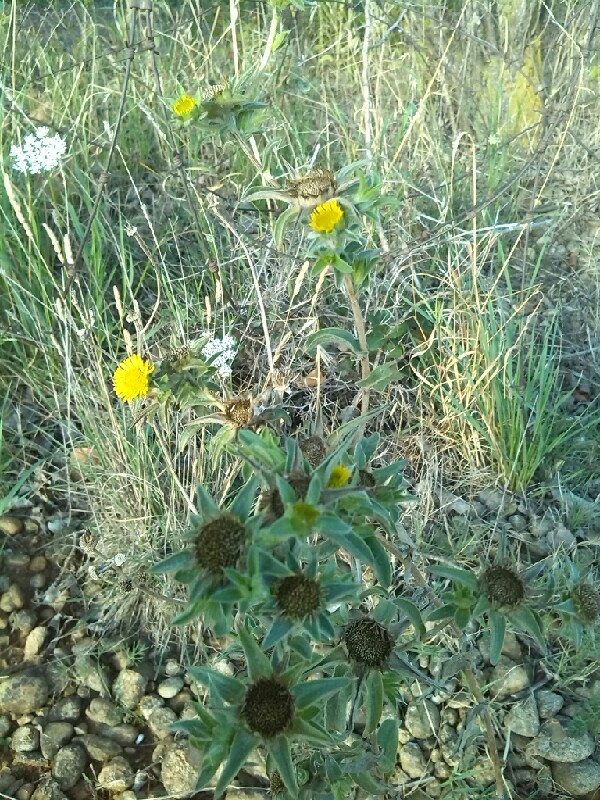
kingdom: Plantae
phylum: Tracheophyta
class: Magnoliopsida
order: Asterales
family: Asteraceae
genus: Pallenis
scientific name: Pallenis spinosa
